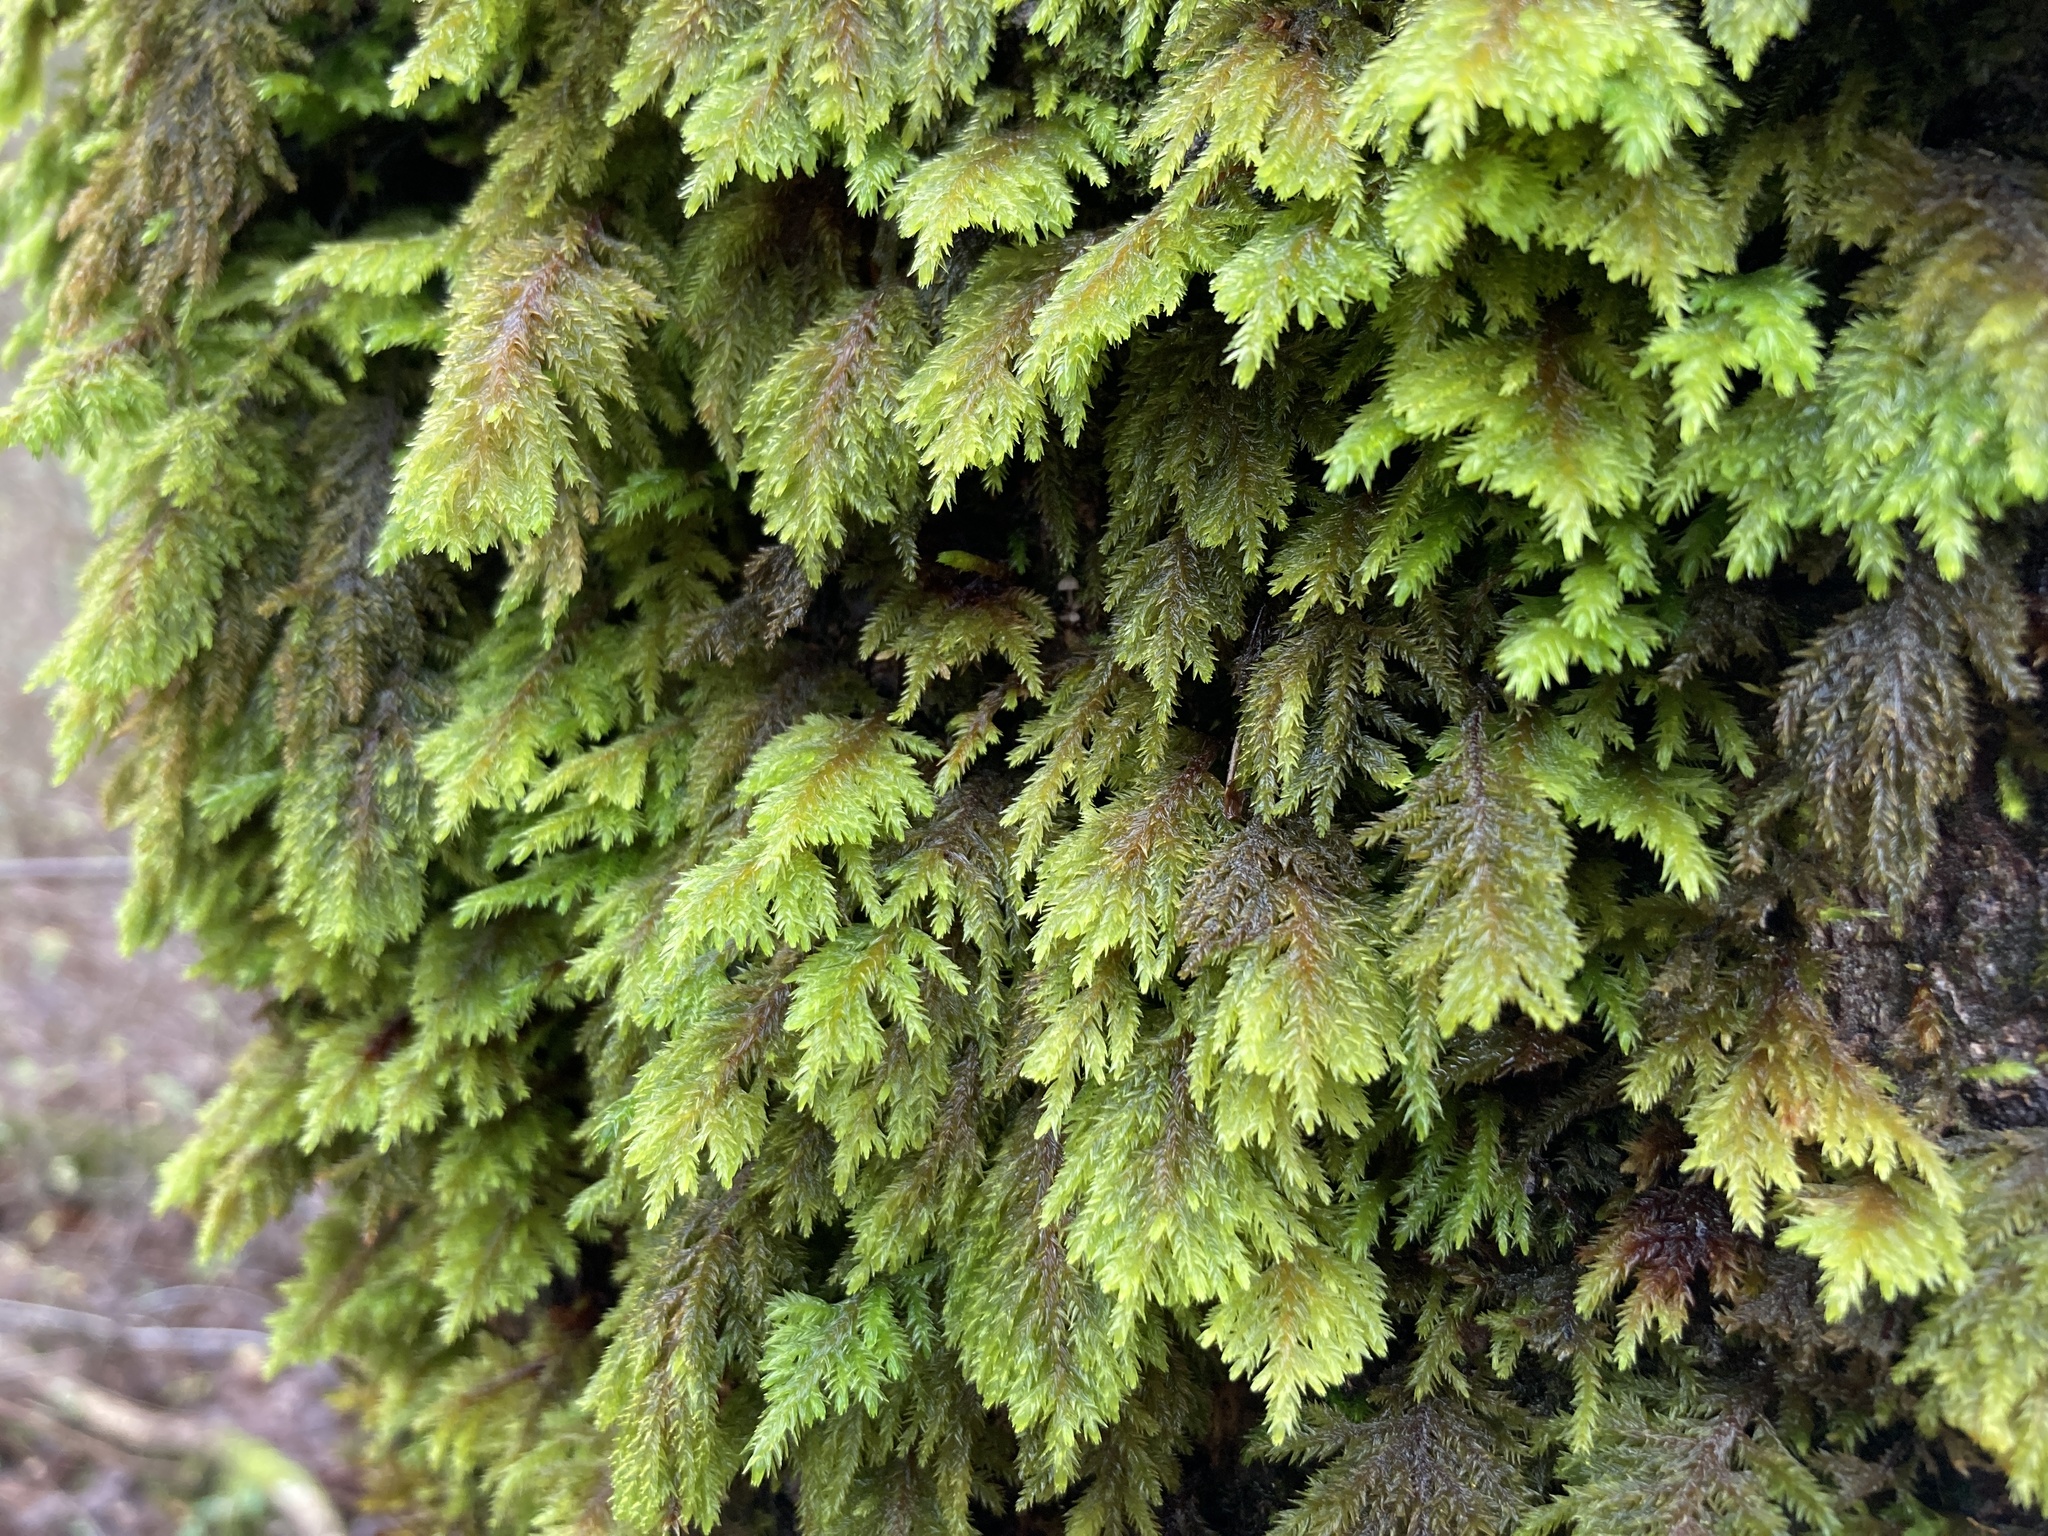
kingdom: Plantae
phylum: Bryophyta
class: Bryopsida
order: Hypnales
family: Cryphaeaceae
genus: Dendroalsia
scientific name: Dendroalsia abietina
